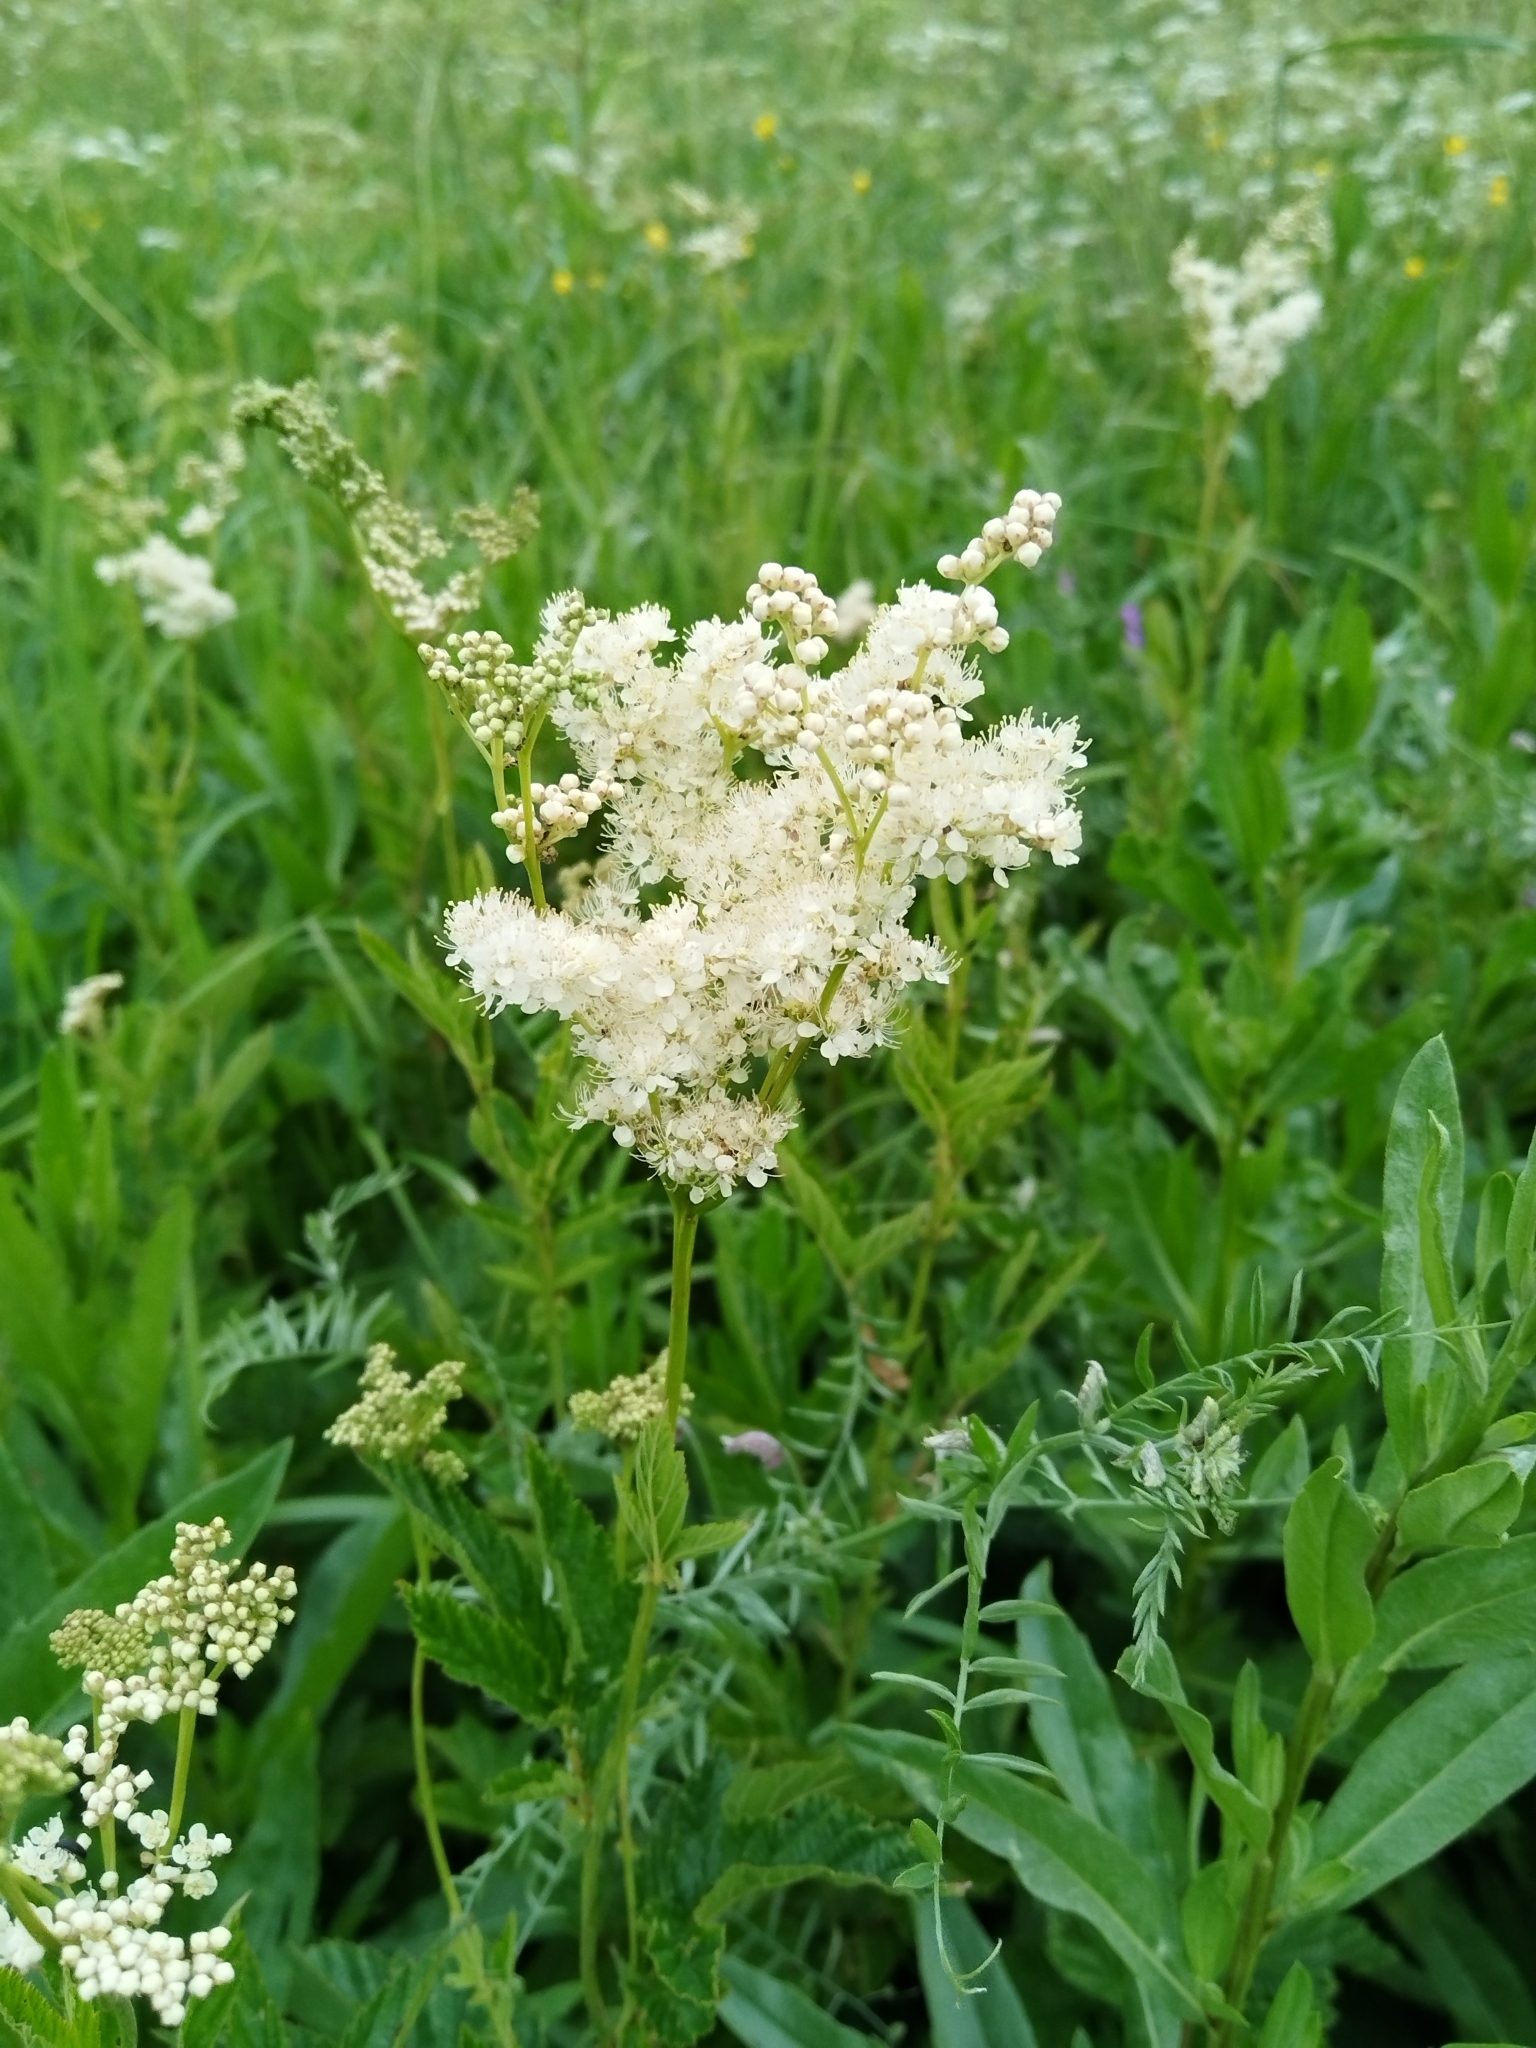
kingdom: Plantae
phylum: Tracheophyta
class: Magnoliopsida
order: Rosales
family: Rosaceae
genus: Filipendula
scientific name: Filipendula ulmaria
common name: Meadowsweet
